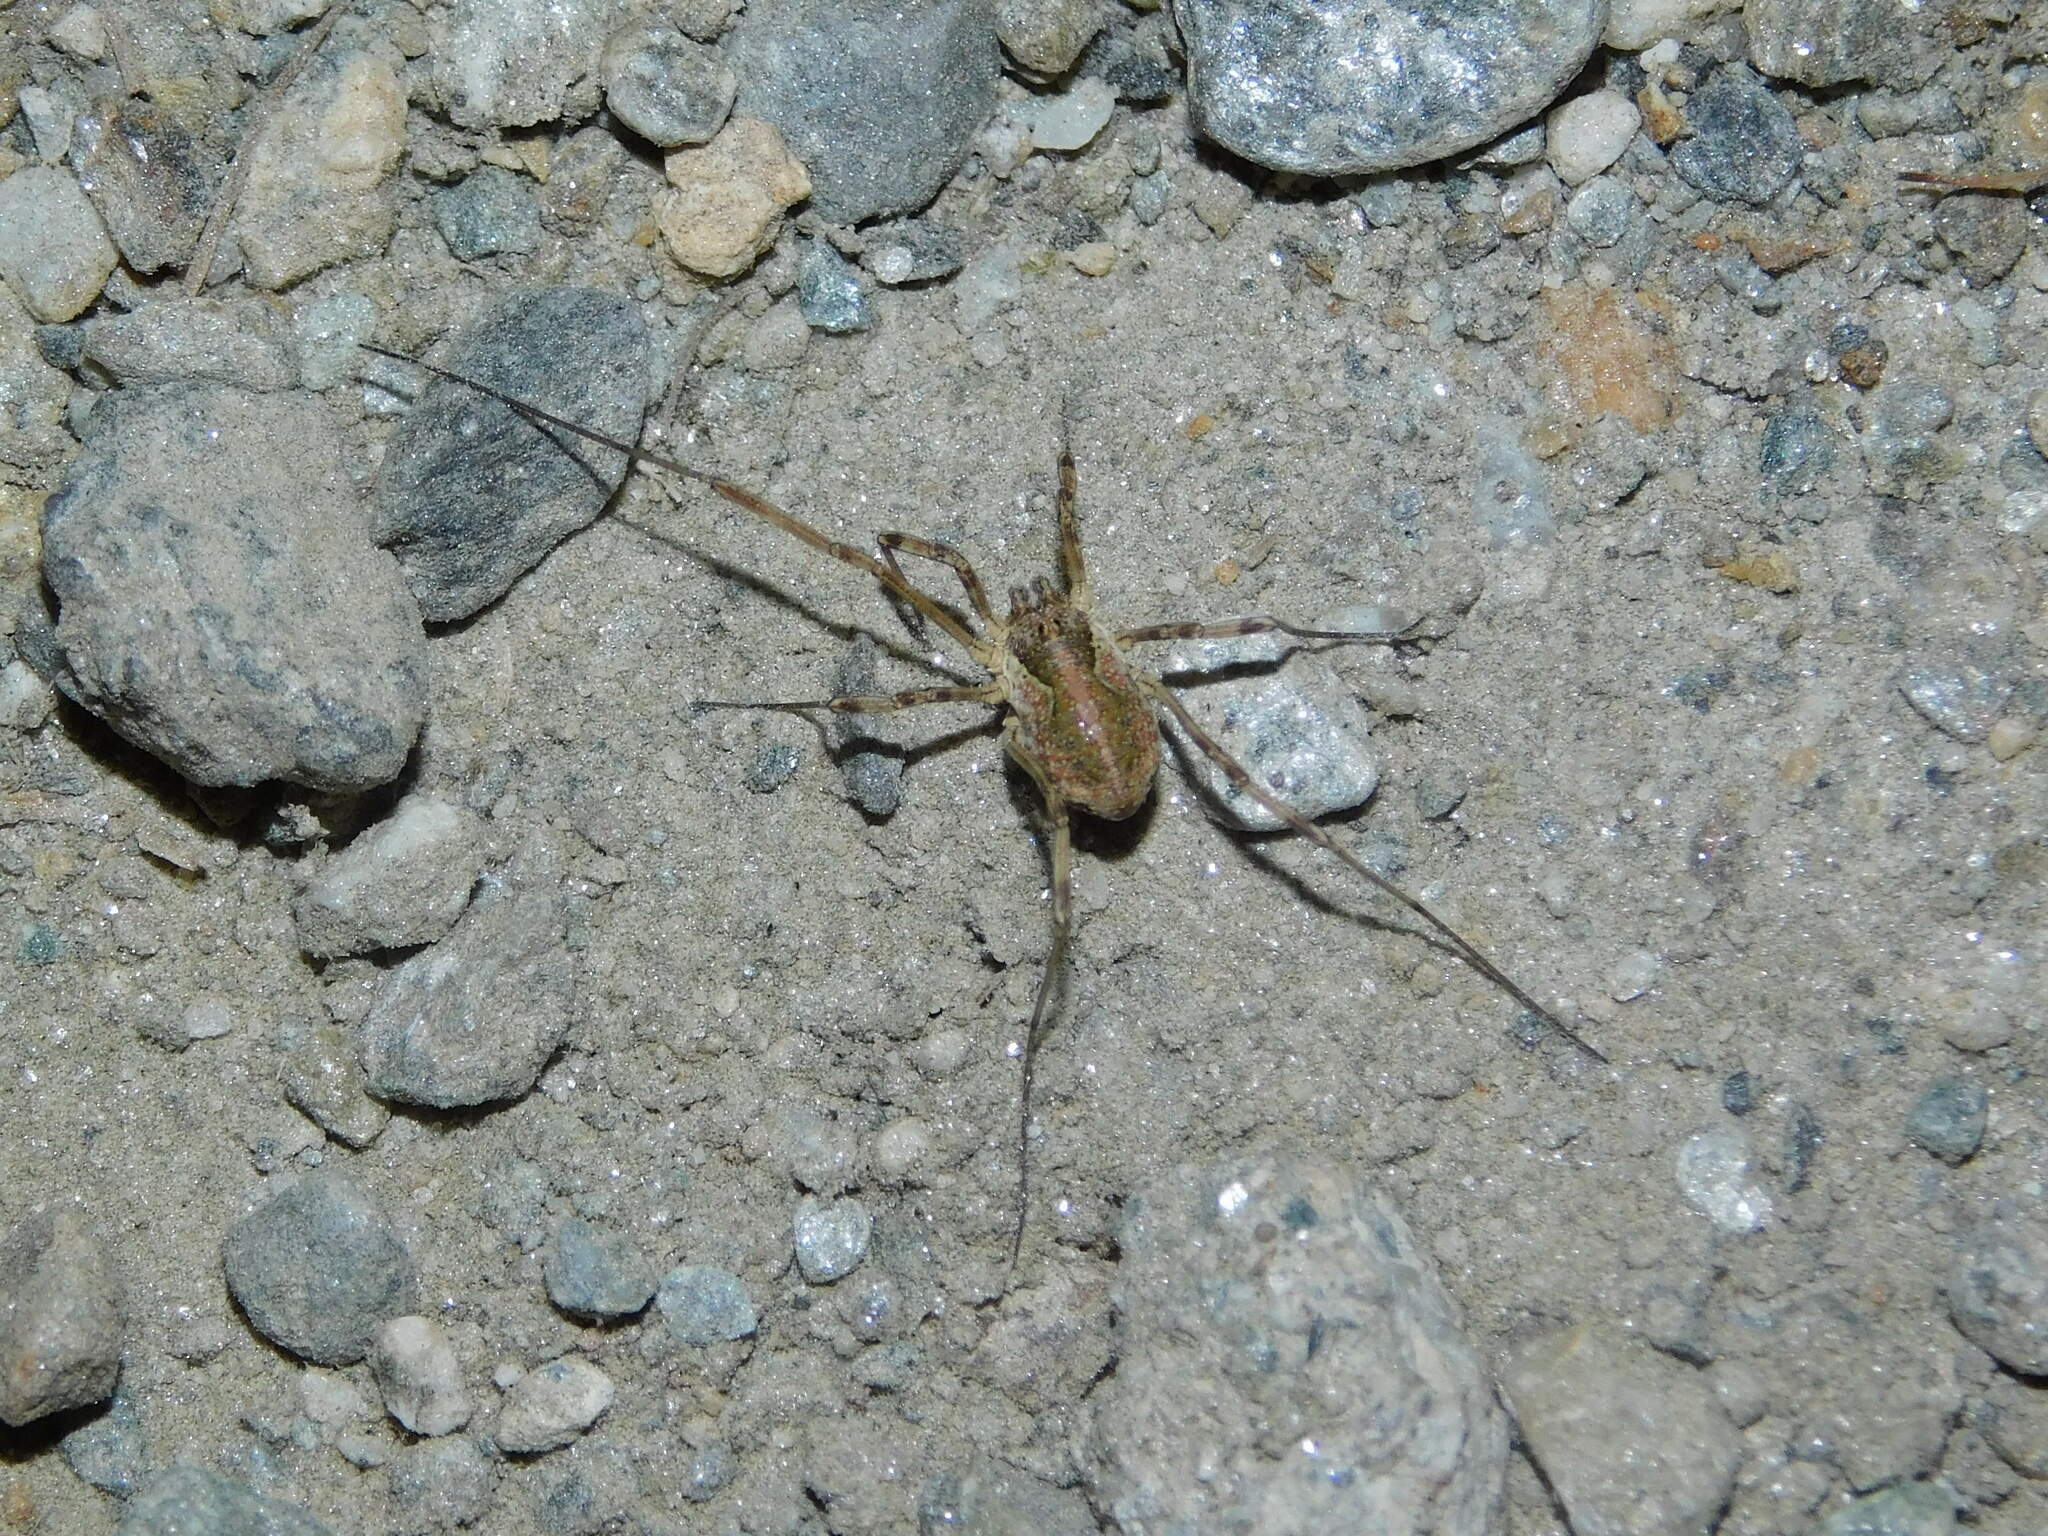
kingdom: Animalia
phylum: Arthropoda
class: Arachnida
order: Opiliones
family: Phalangiidae
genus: Mitopus
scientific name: Mitopus morio
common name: Saddleback harvestman
